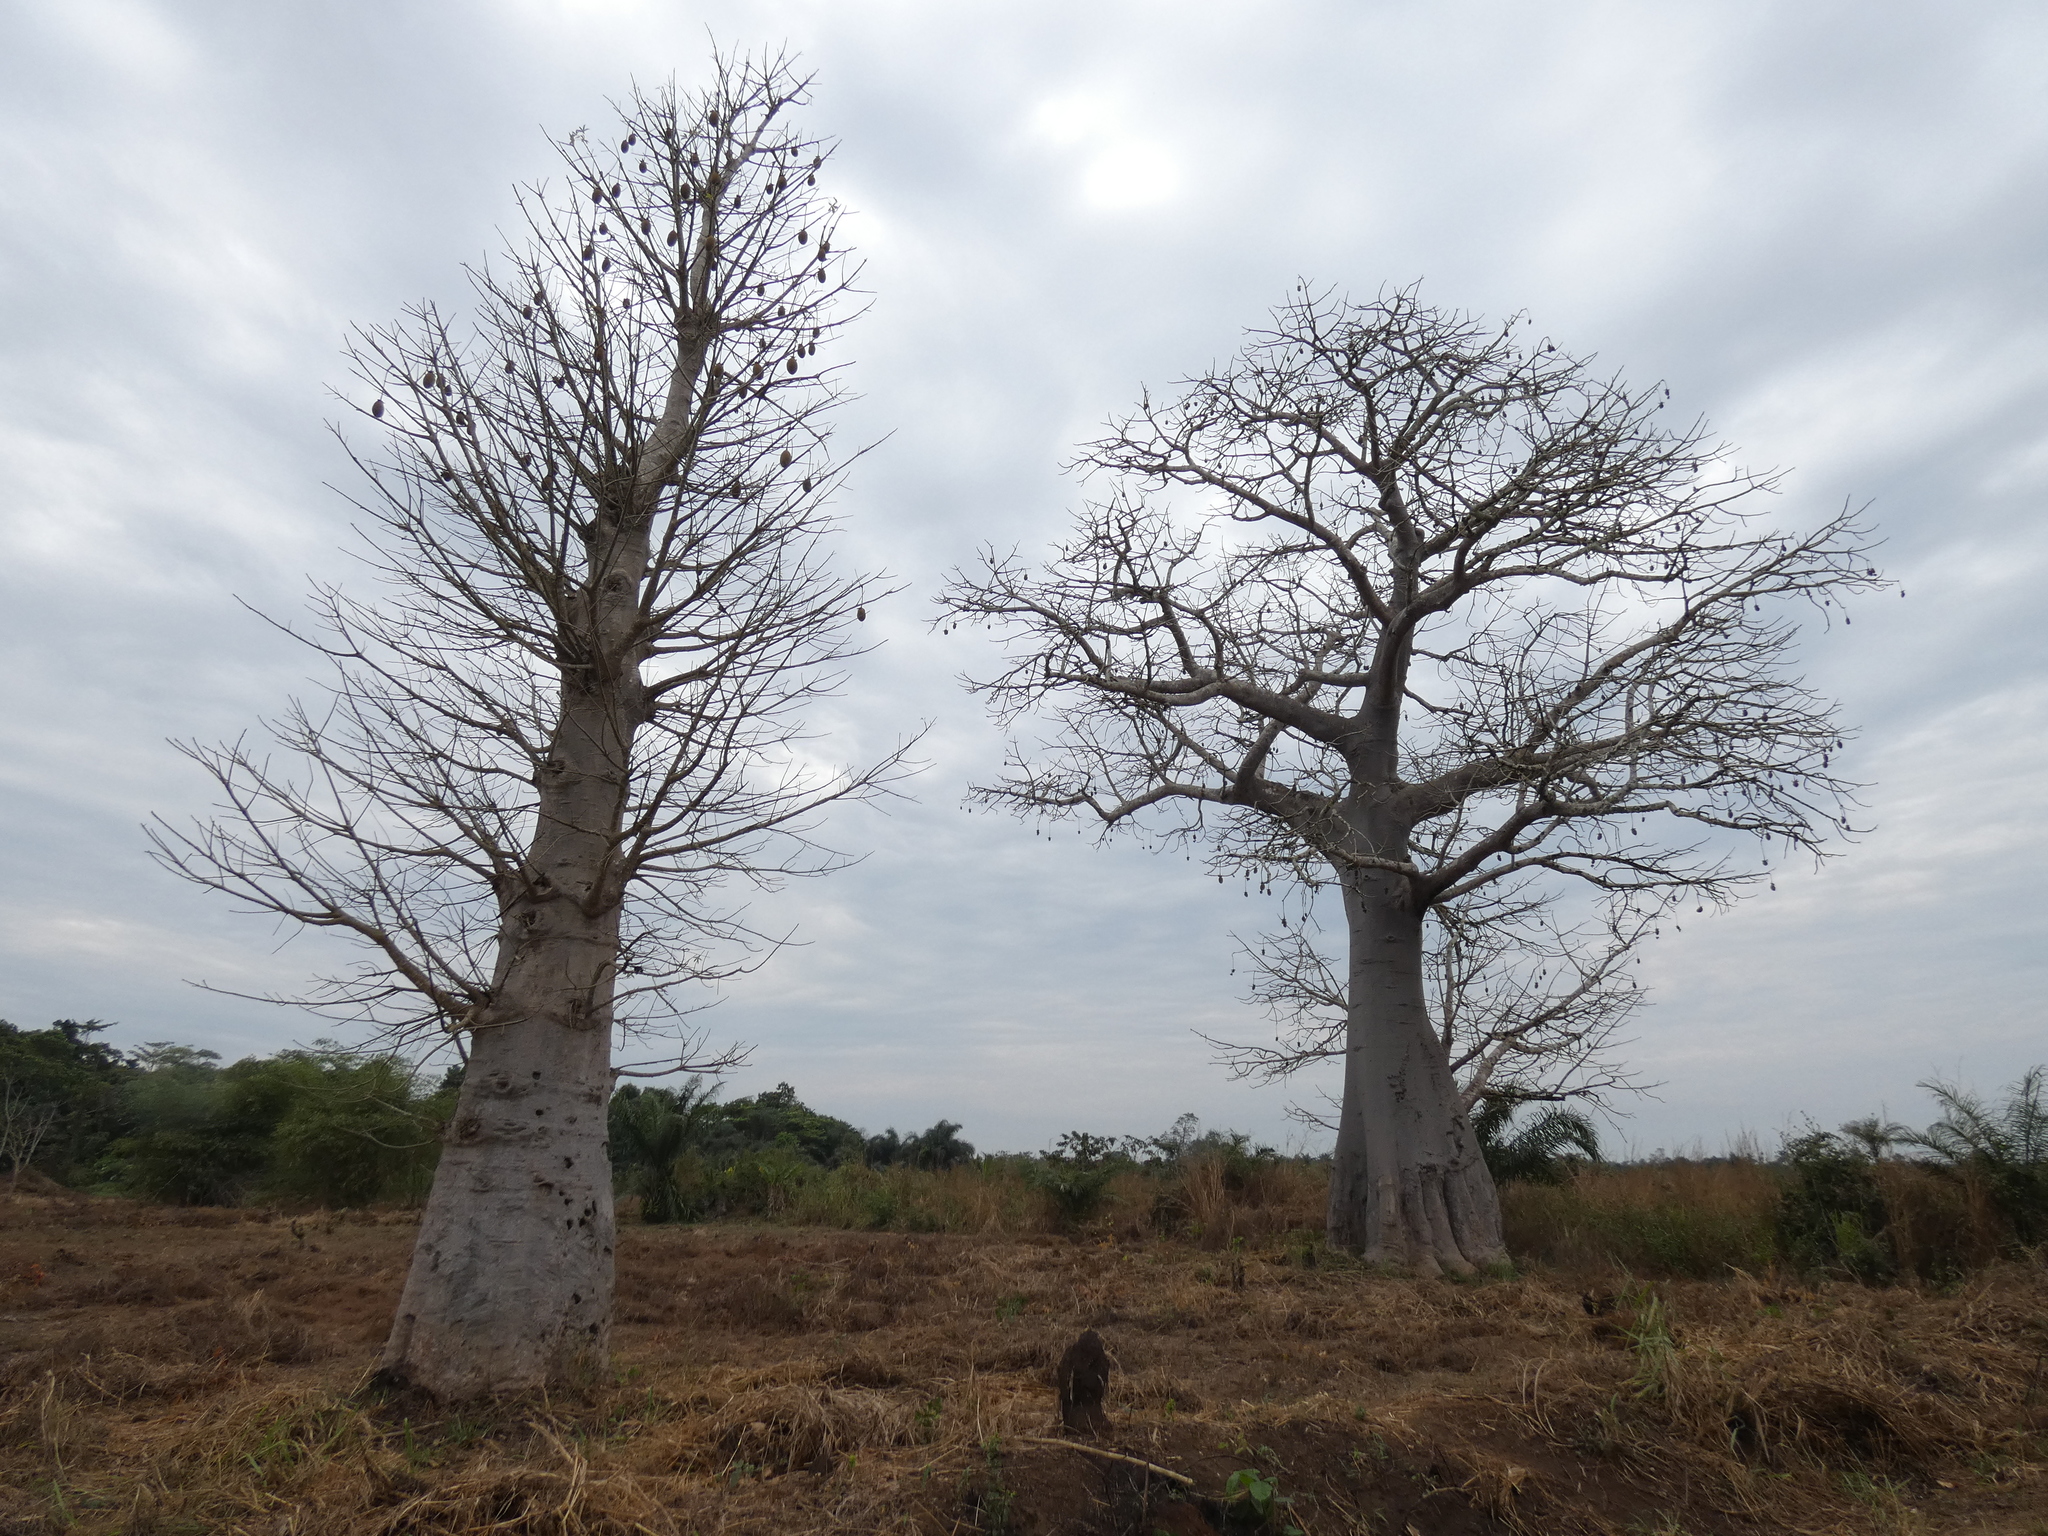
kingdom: Plantae
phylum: Tracheophyta
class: Magnoliopsida
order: Malvales
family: Malvaceae
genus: Adansonia
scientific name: Adansonia digitata
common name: Dead-rat-tree
